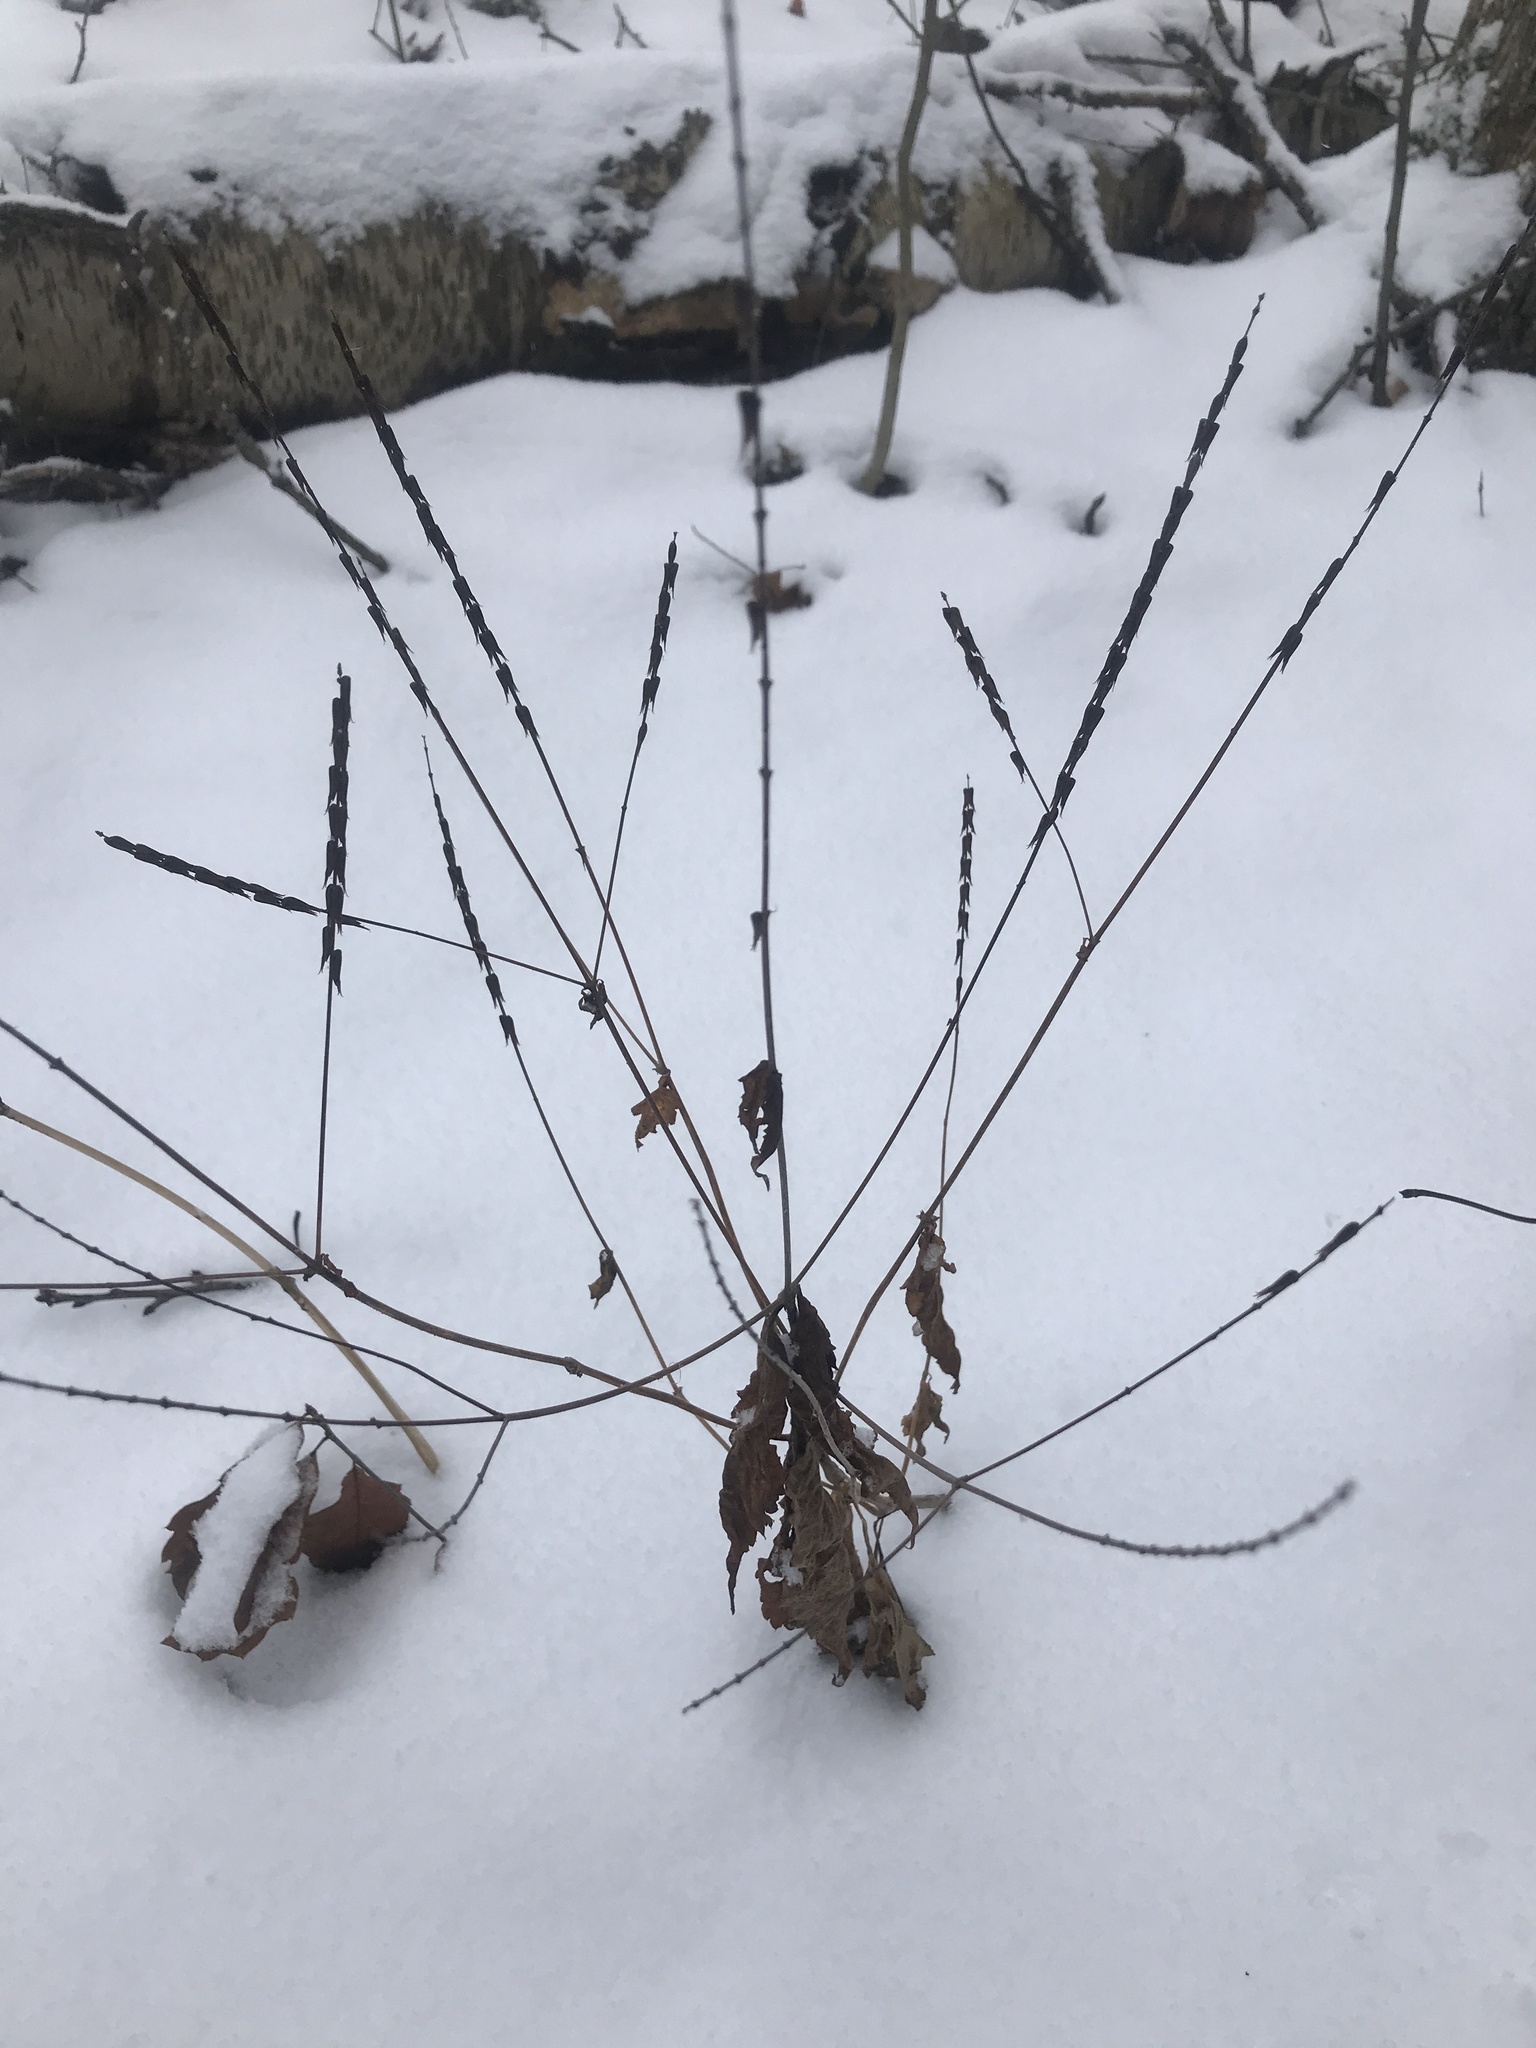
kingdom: Plantae
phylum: Tracheophyta
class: Magnoliopsida
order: Lamiales
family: Phrymaceae
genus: Phryma
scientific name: Phryma leptostachya
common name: American lopseed
